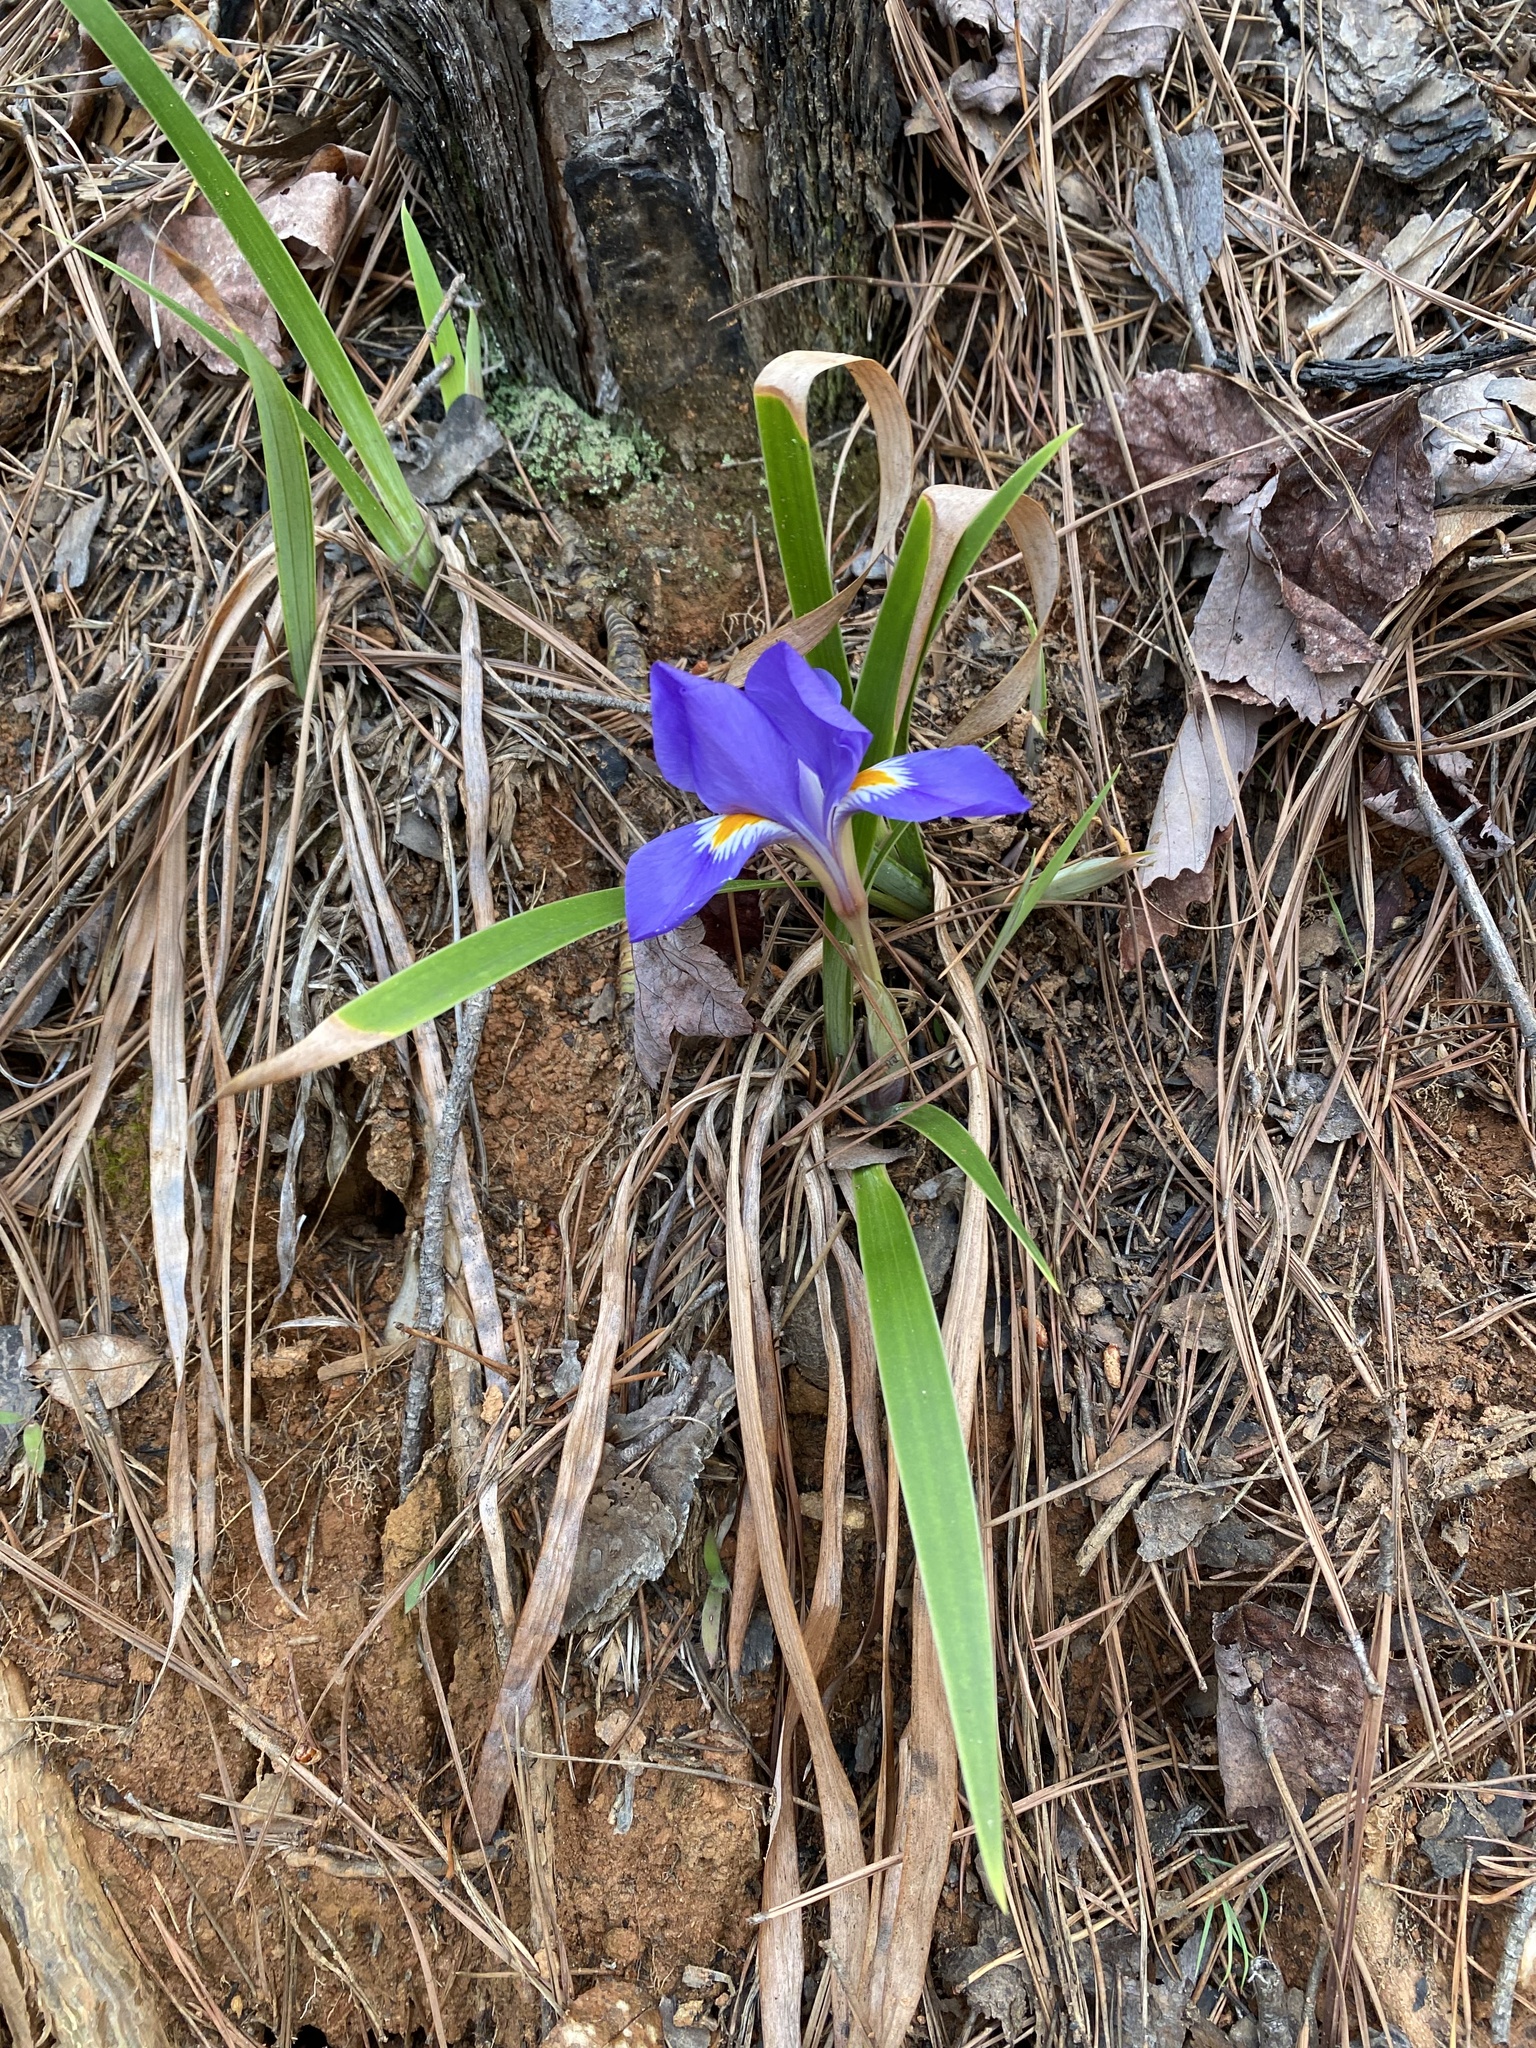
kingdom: Plantae
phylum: Tracheophyta
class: Liliopsida
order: Asparagales
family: Iridaceae
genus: Iris
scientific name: Iris verna
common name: Dwarf iris
